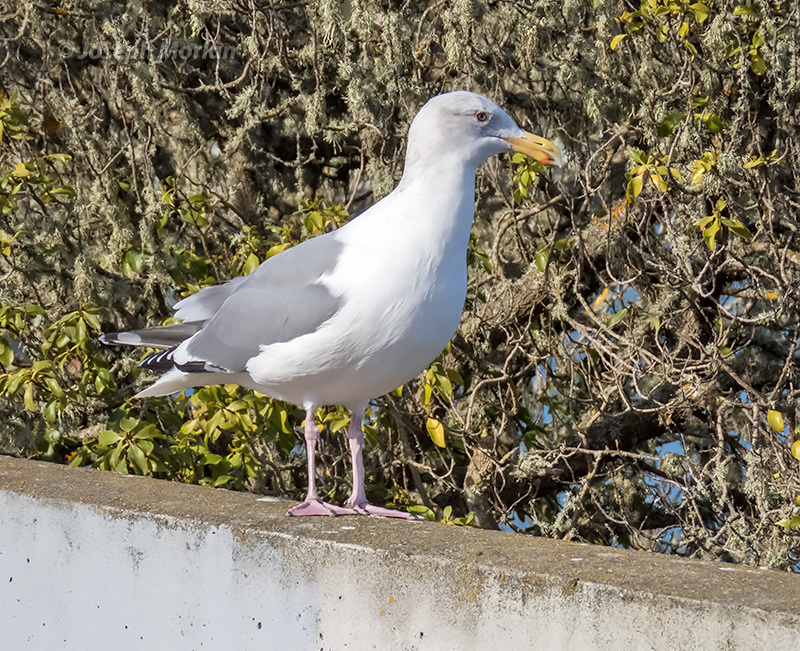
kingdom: Animalia
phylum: Chordata
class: Aves
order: Charadriiformes
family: Laridae
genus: Larus
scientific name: Larus
